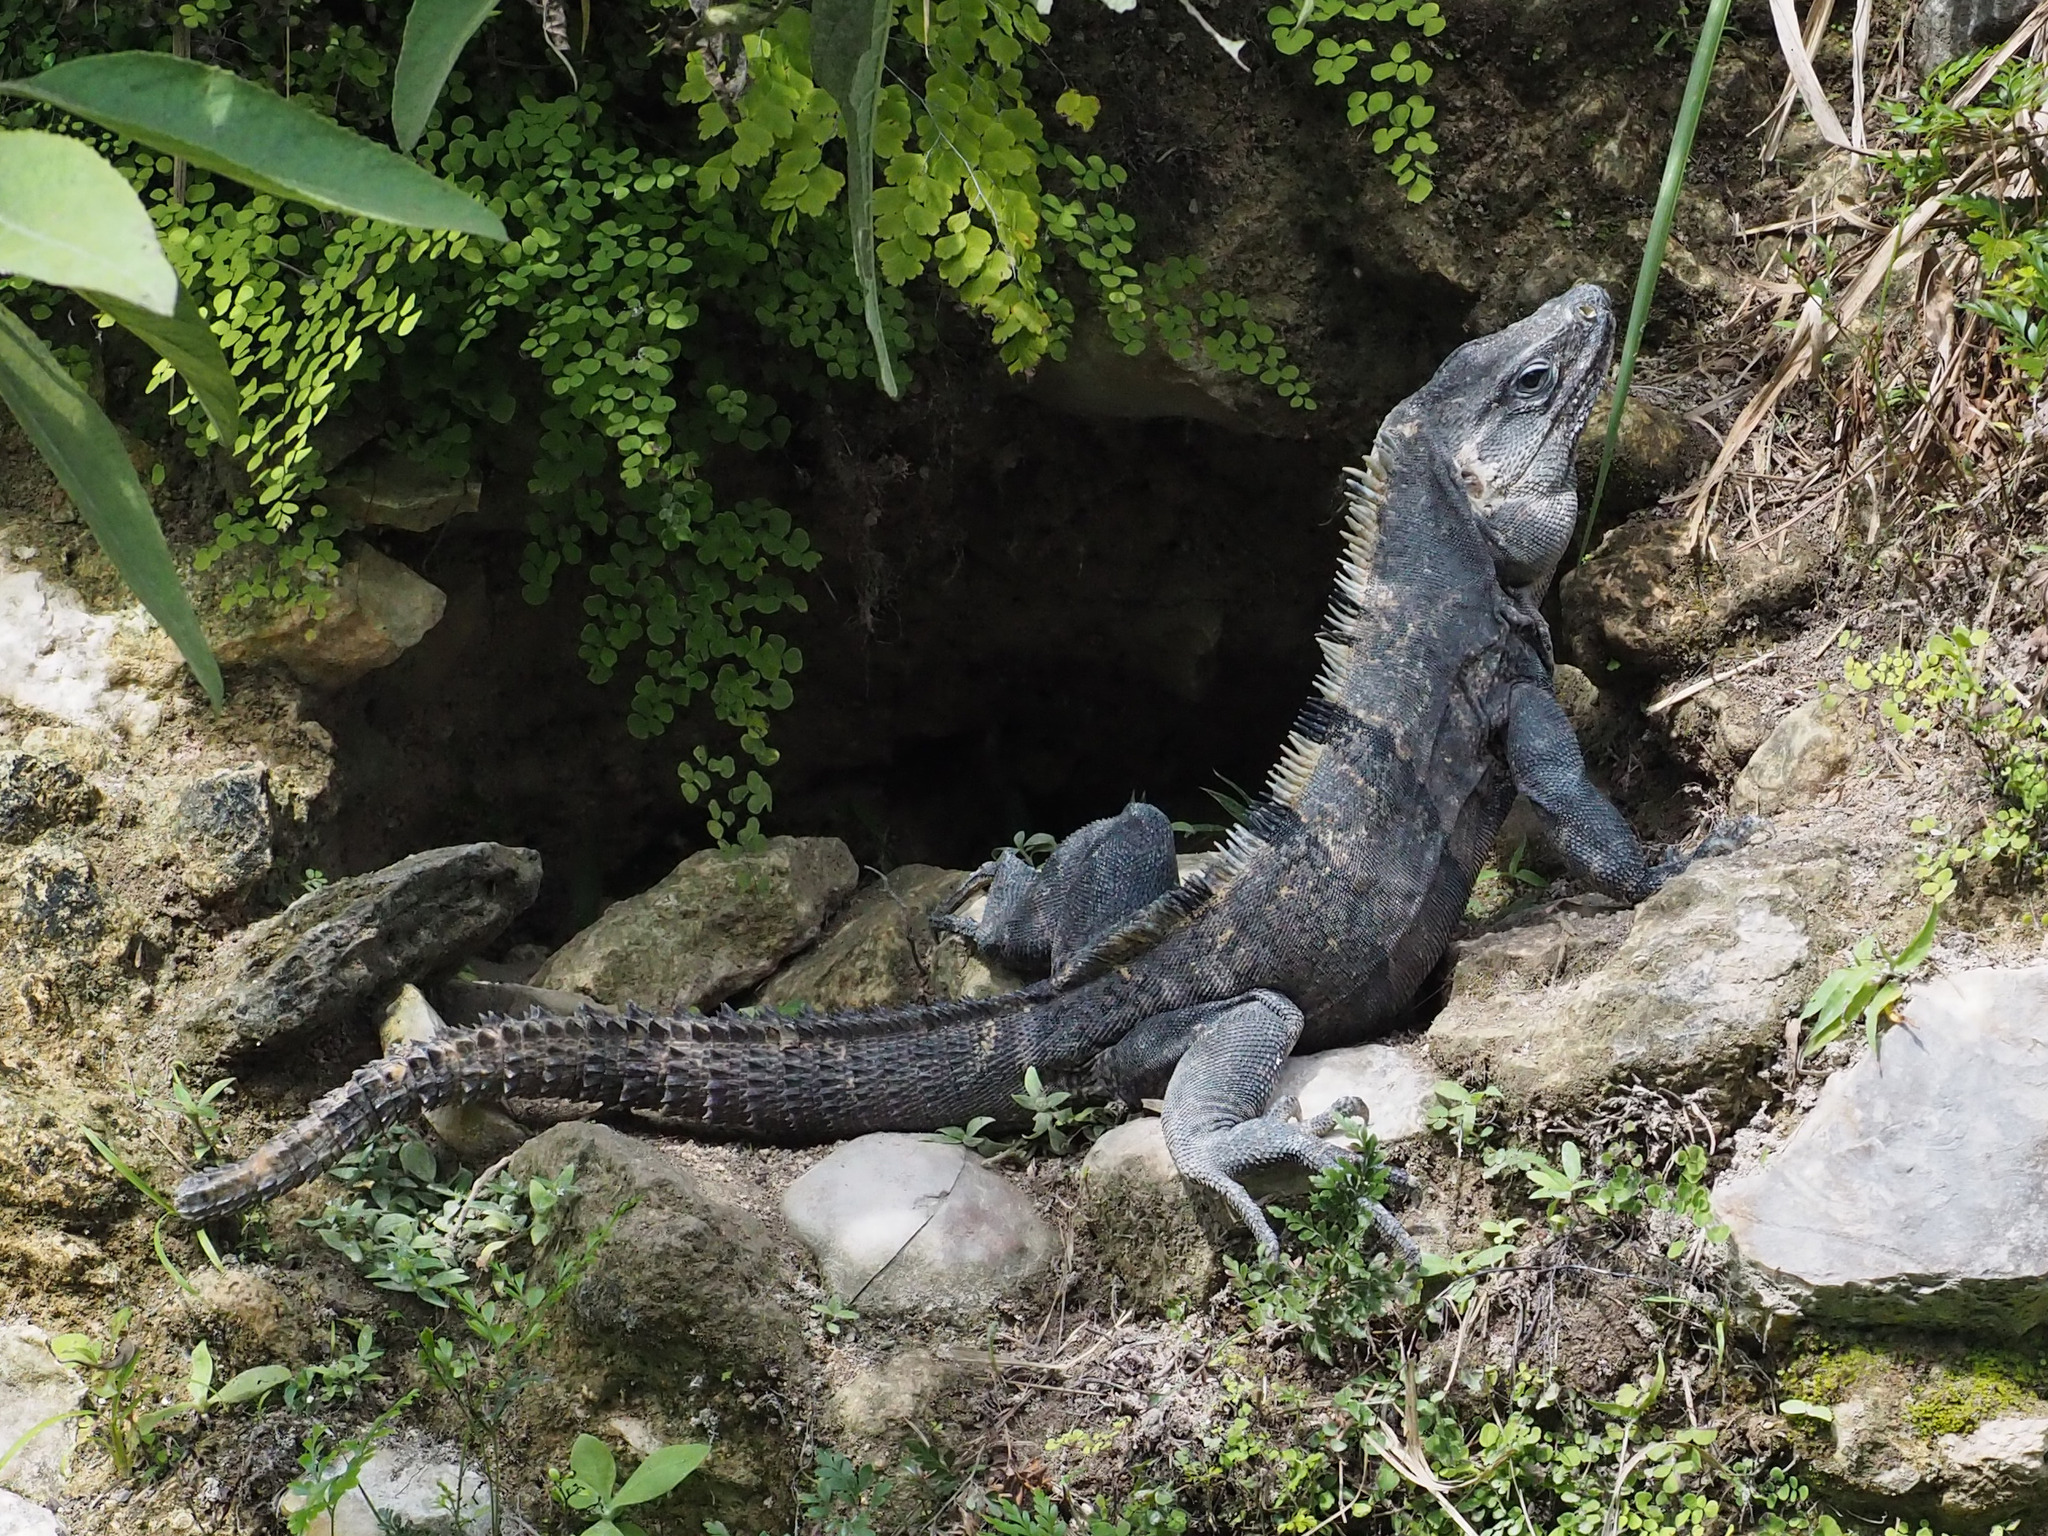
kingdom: Animalia
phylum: Chordata
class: Squamata
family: Iguanidae
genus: Ctenosaura
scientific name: Ctenosaura similis
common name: Black spiny-tailed iguana
